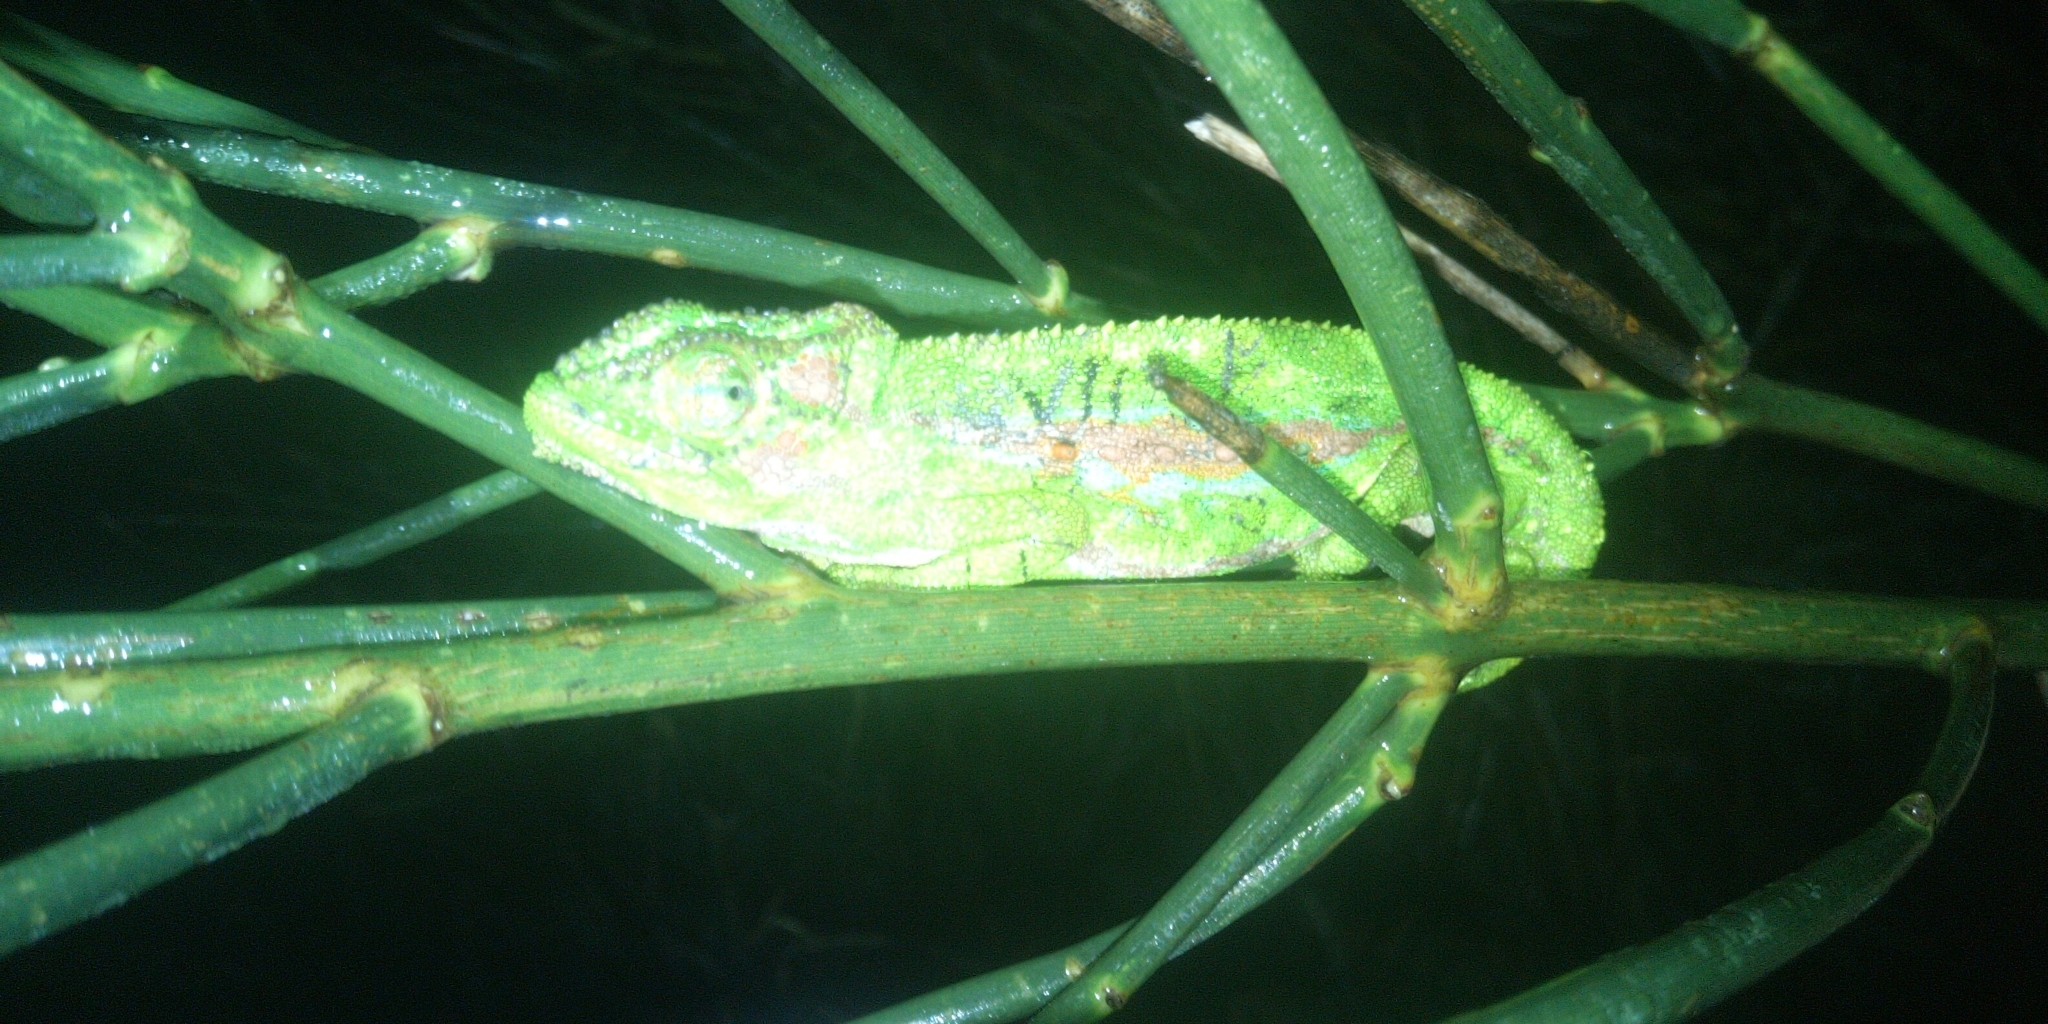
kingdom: Animalia
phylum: Chordata
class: Squamata
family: Chamaeleonidae
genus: Bradypodion
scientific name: Bradypodion pumilum
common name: Cape dwarf chameleon
